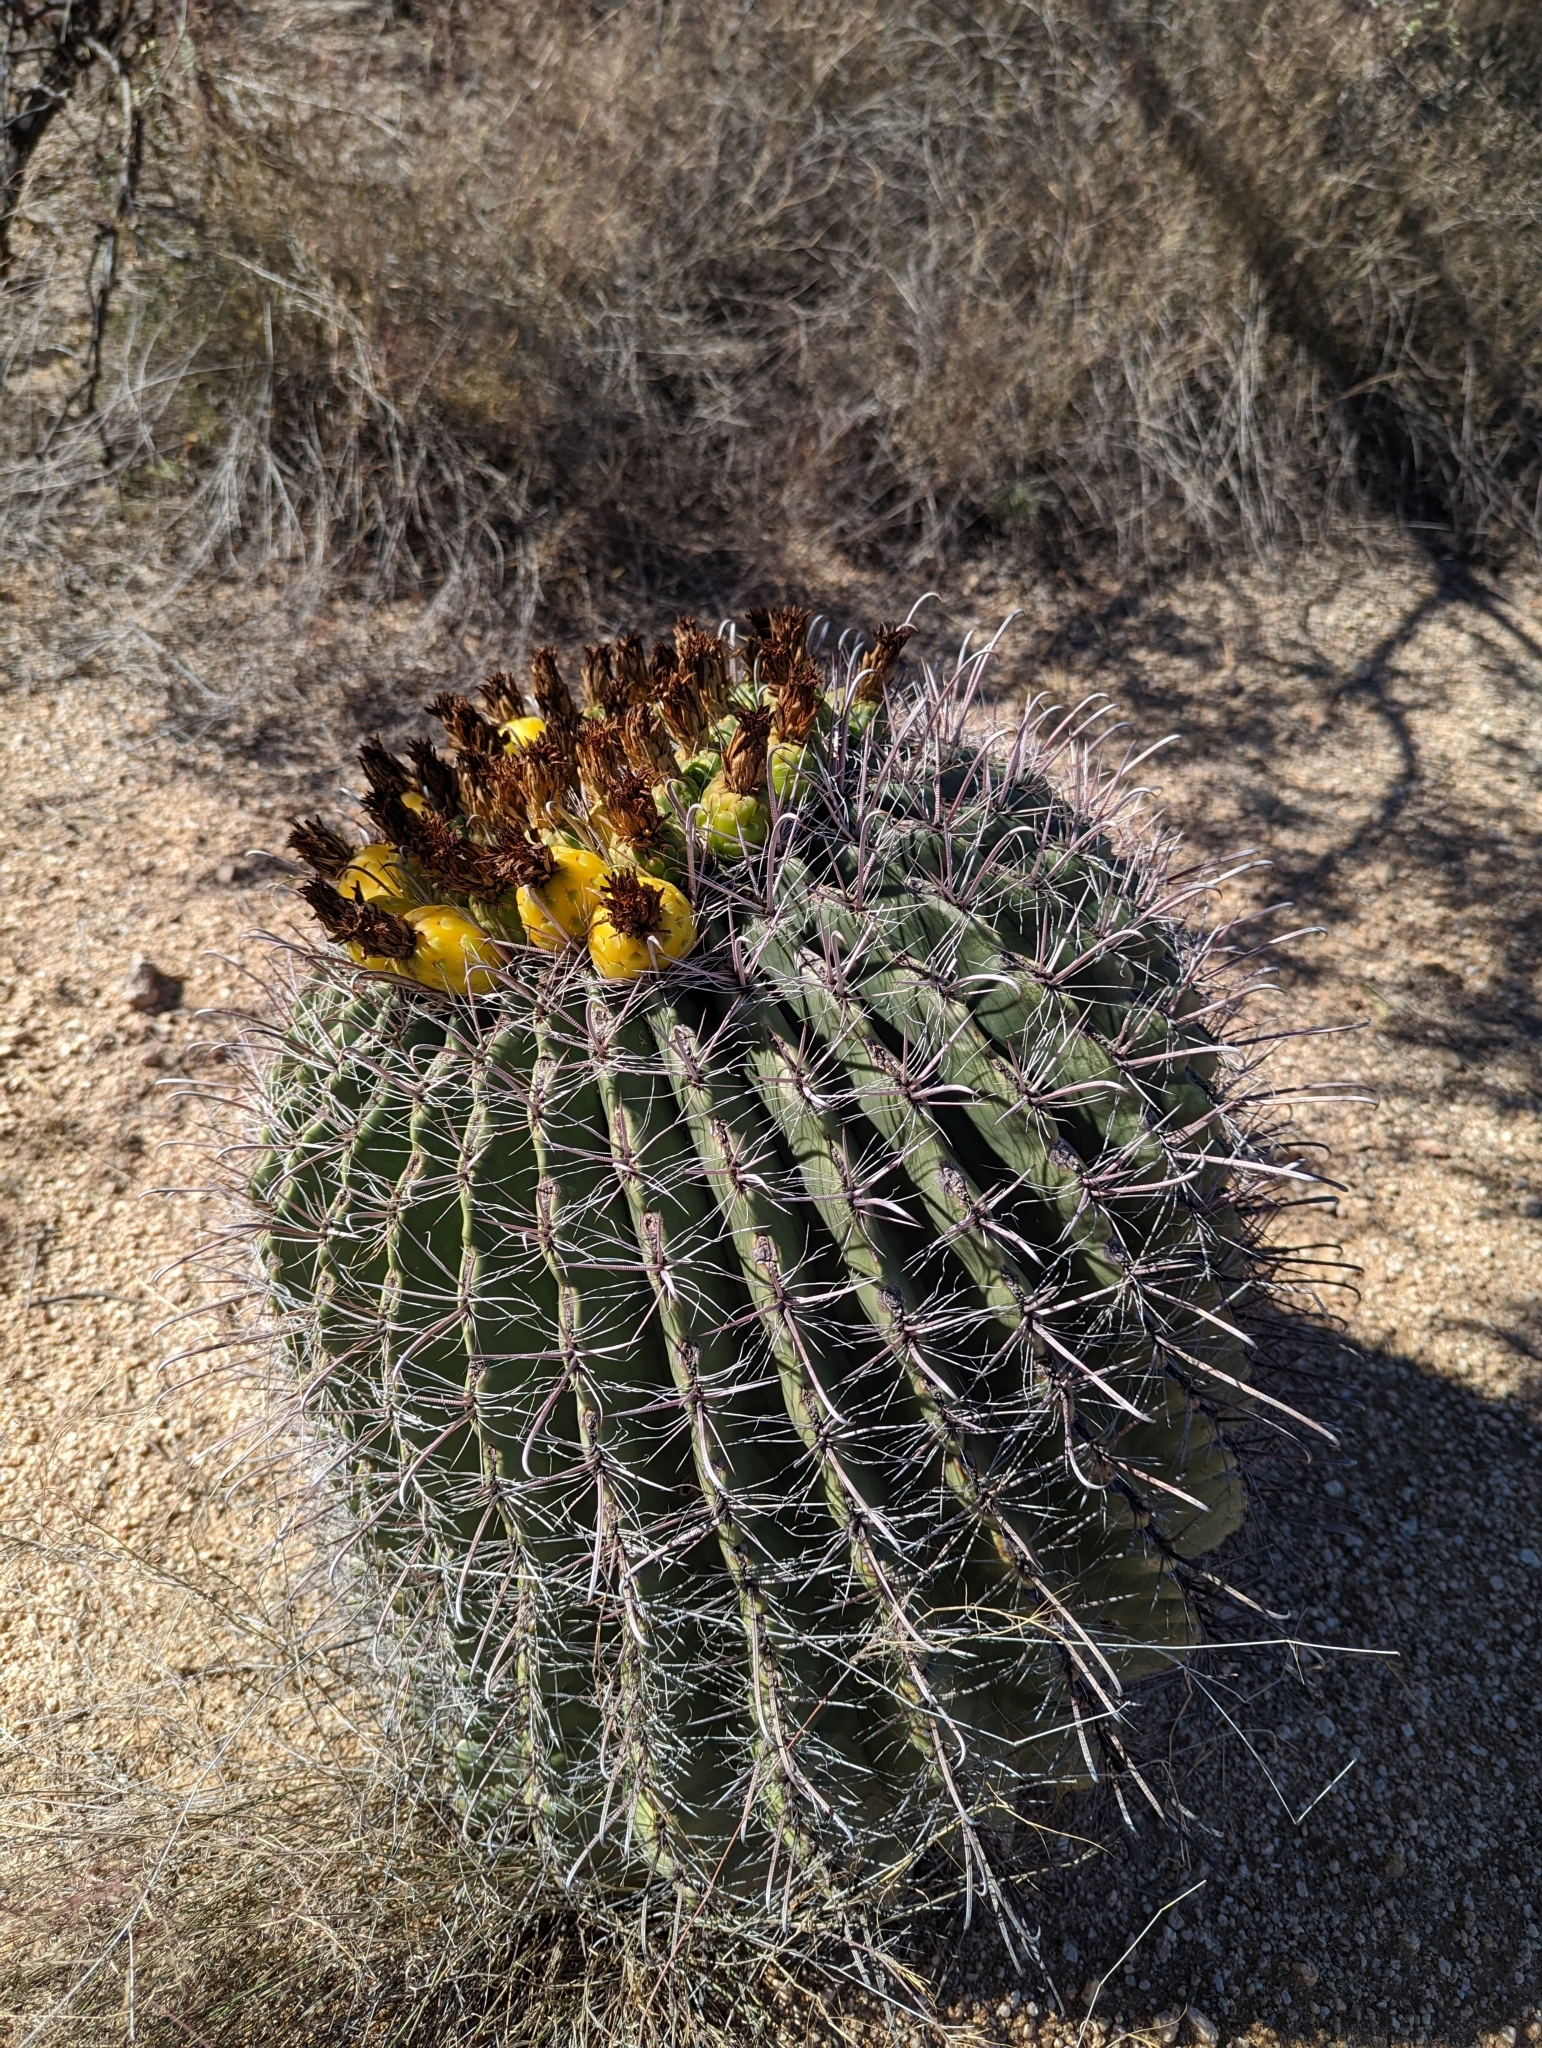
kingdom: Plantae
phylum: Tracheophyta
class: Magnoliopsida
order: Caryophyllales
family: Cactaceae
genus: Ferocactus
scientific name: Ferocactus wislizeni
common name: Candy barrel cactus
